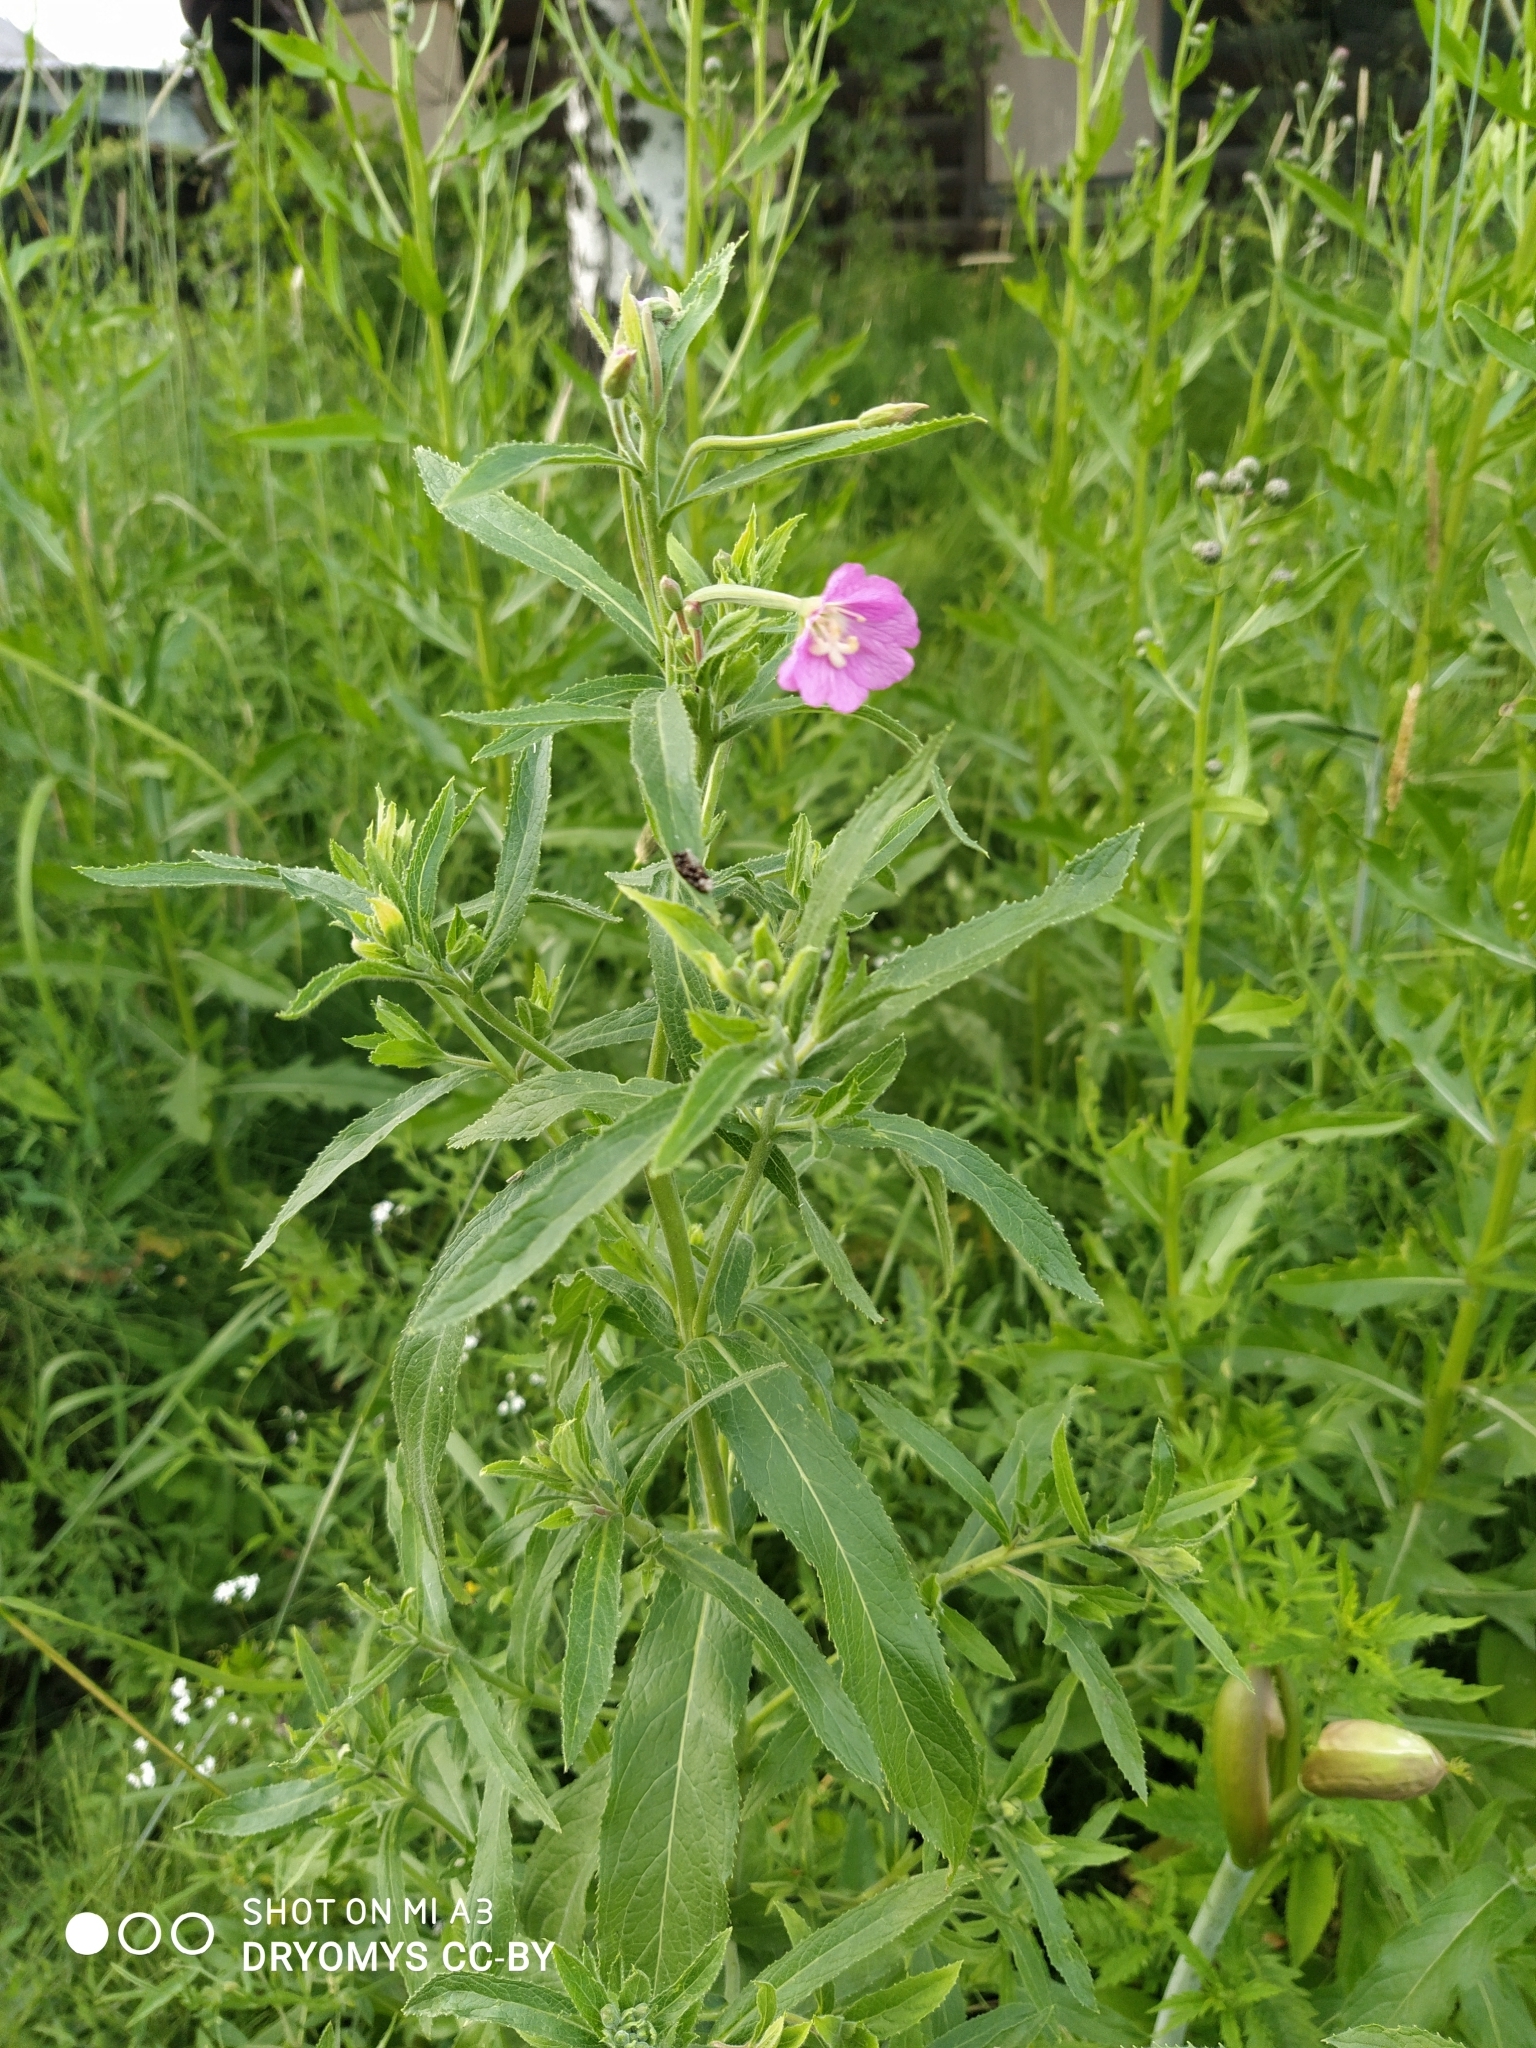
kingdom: Plantae
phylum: Tracheophyta
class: Magnoliopsida
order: Myrtales
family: Onagraceae
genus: Epilobium
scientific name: Epilobium hirsutum
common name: Great willowherb
